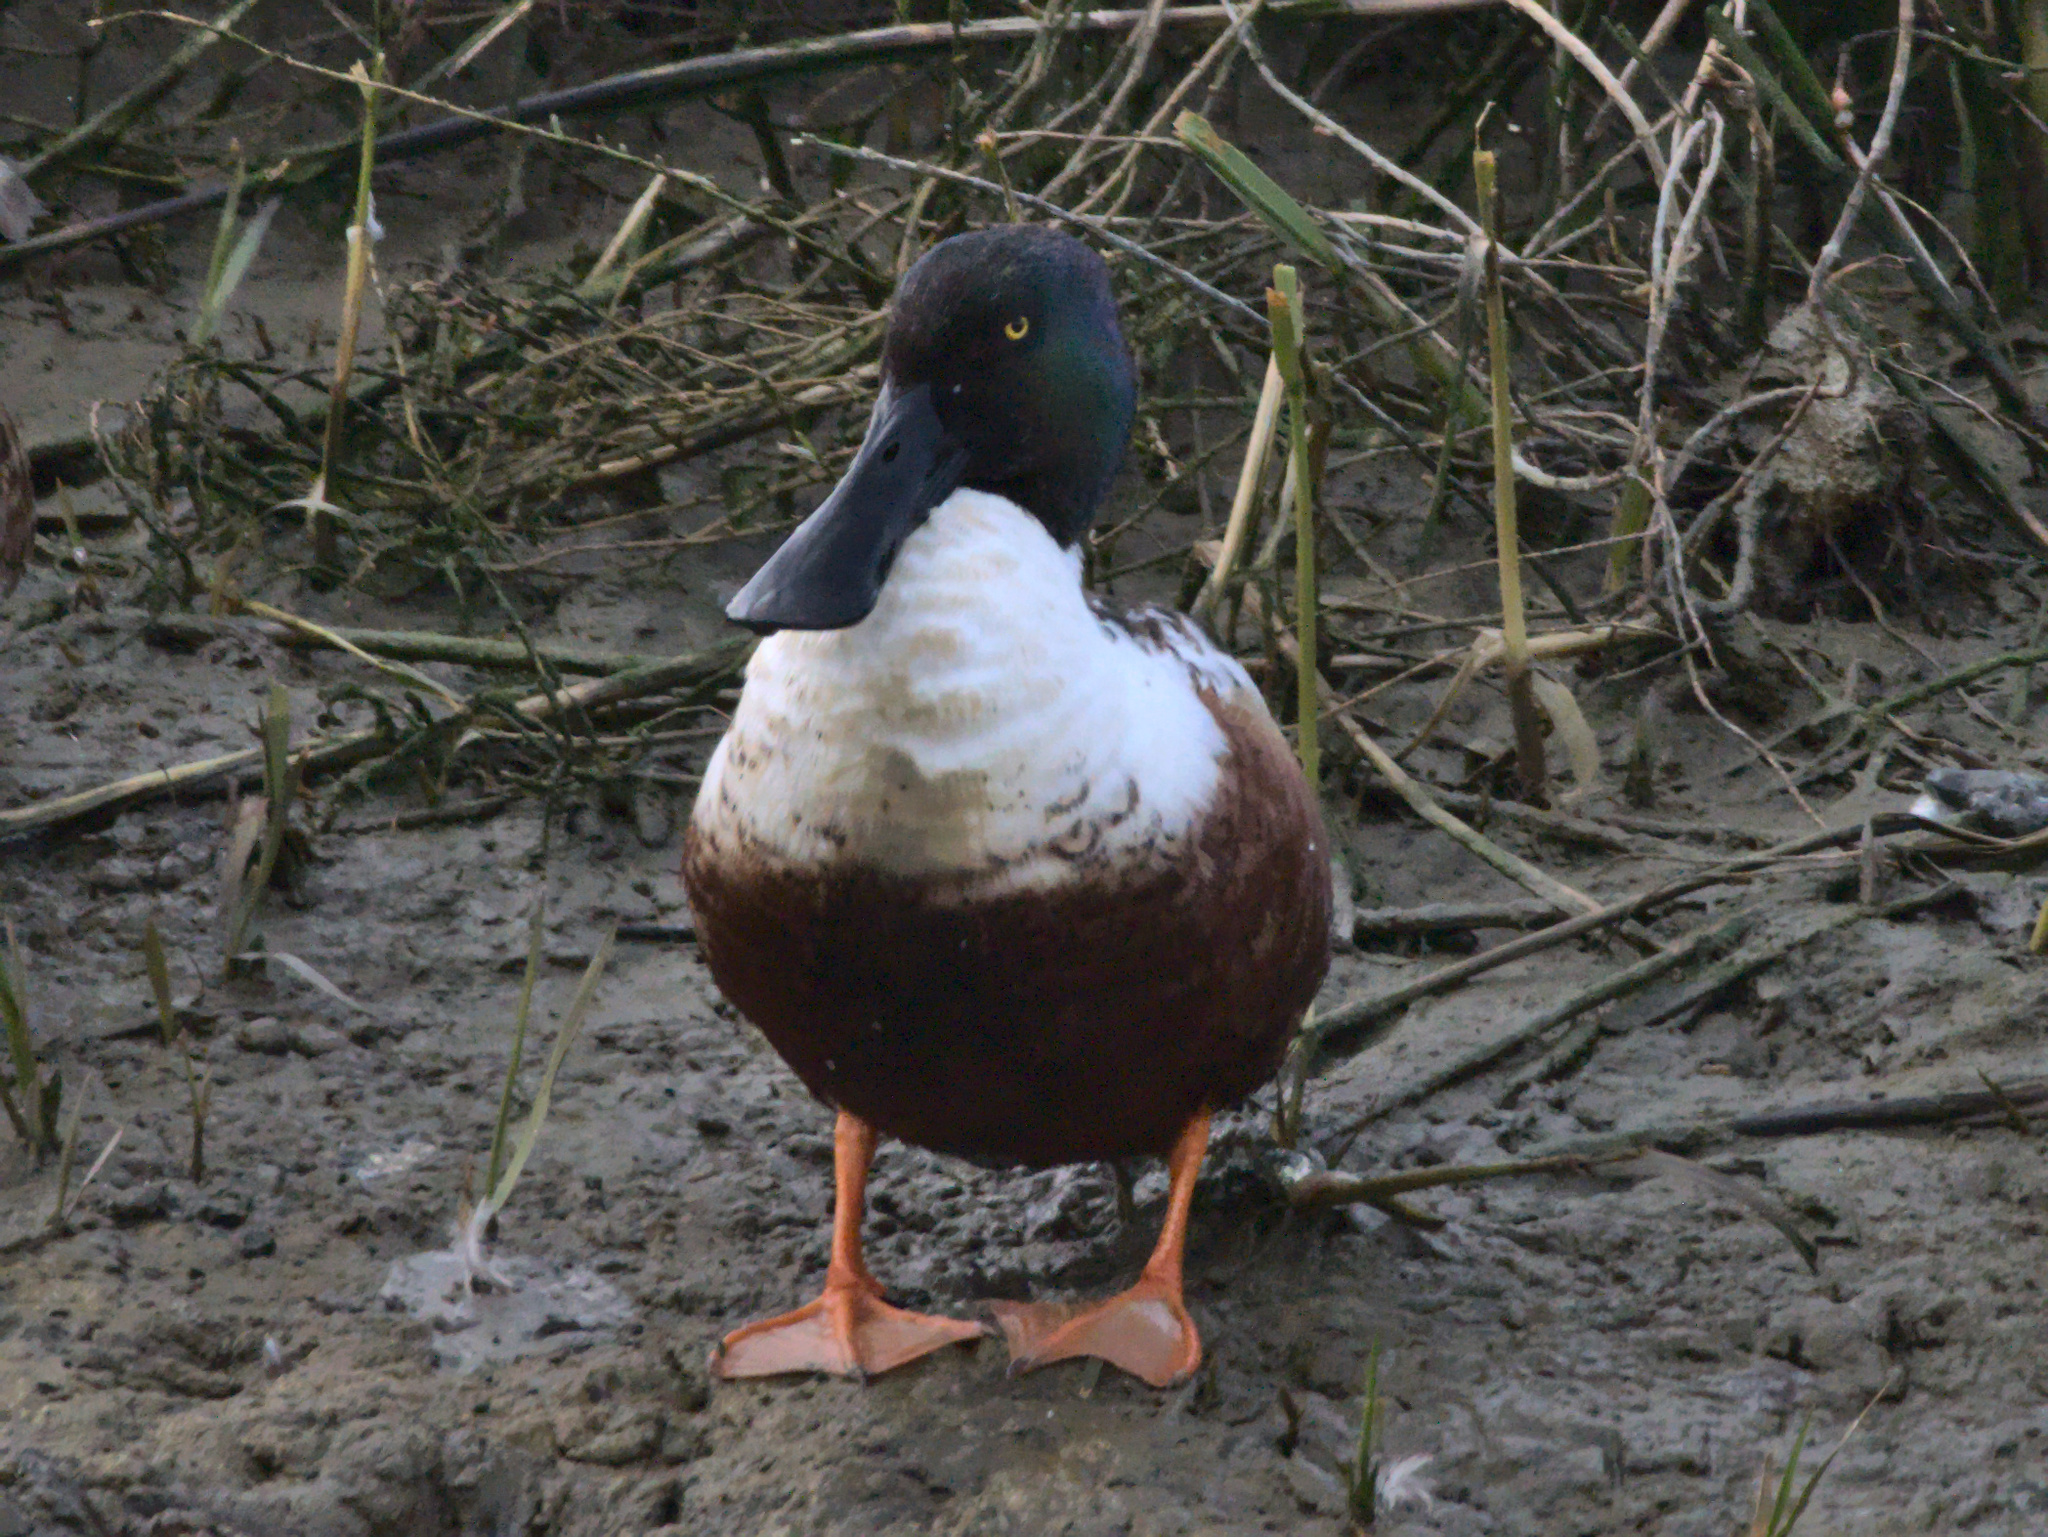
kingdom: Animalia
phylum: Chordata
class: Aves
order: Anseriformes
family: Anatidae
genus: Spatula
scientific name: Spatula clypeata
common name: Northern shoveler
